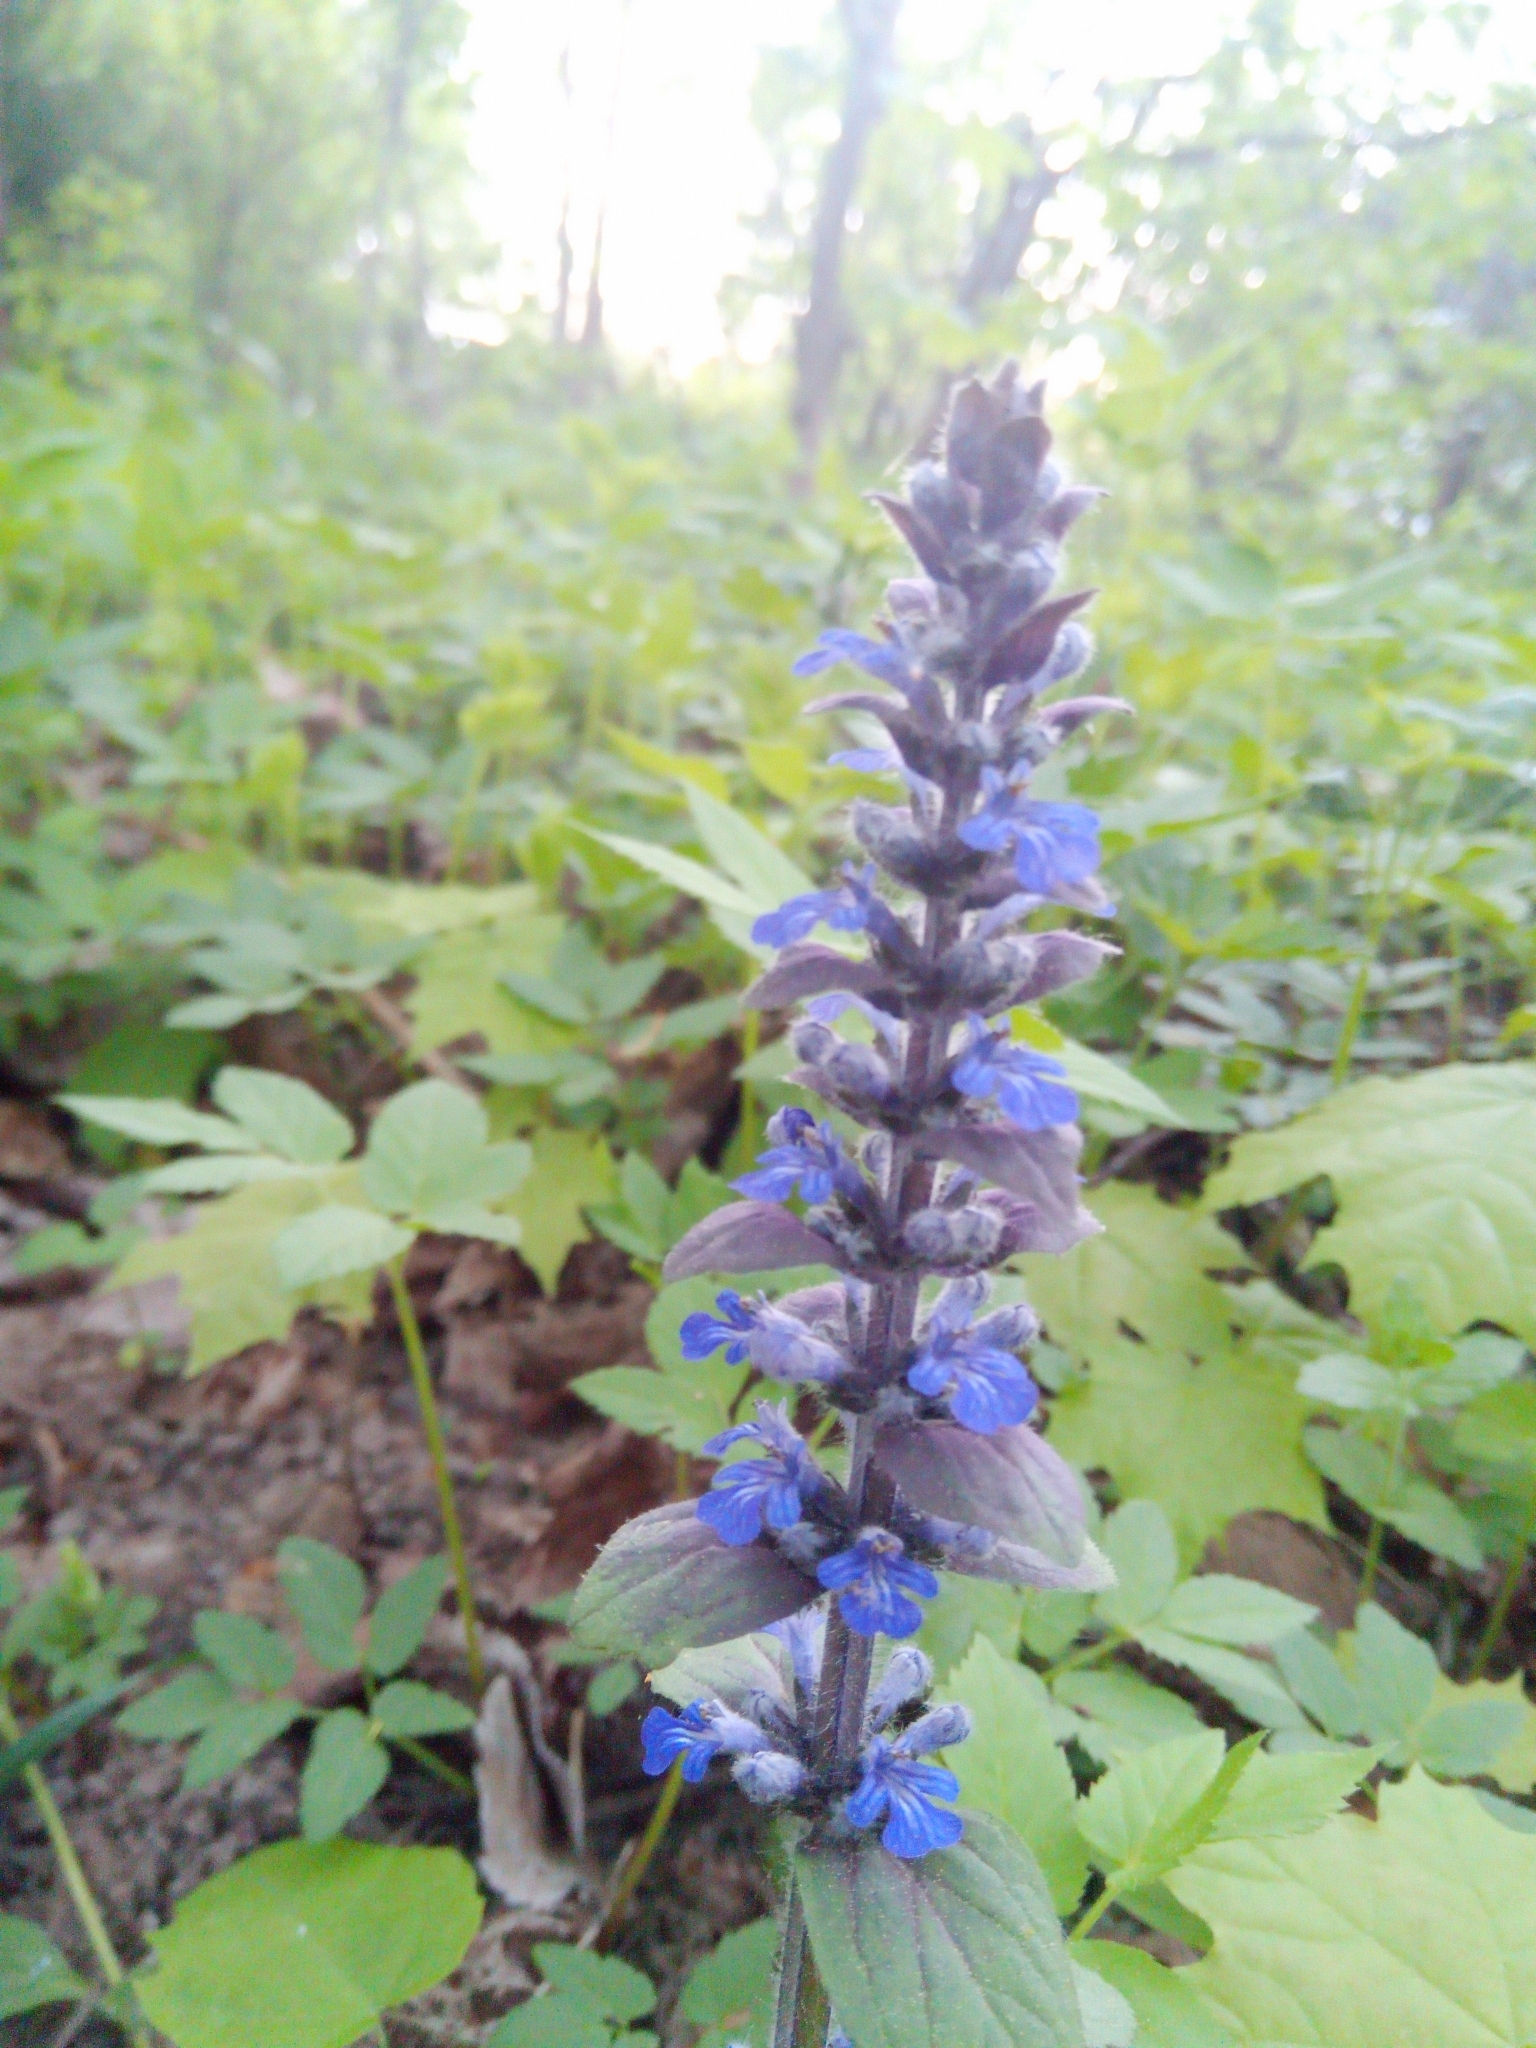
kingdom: Plantae
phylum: Tracheophyta
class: Magnoliopsida
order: Lamiales
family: Lamiaceae
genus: Ajuga
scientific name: Ajuga reptans
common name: Bugle
